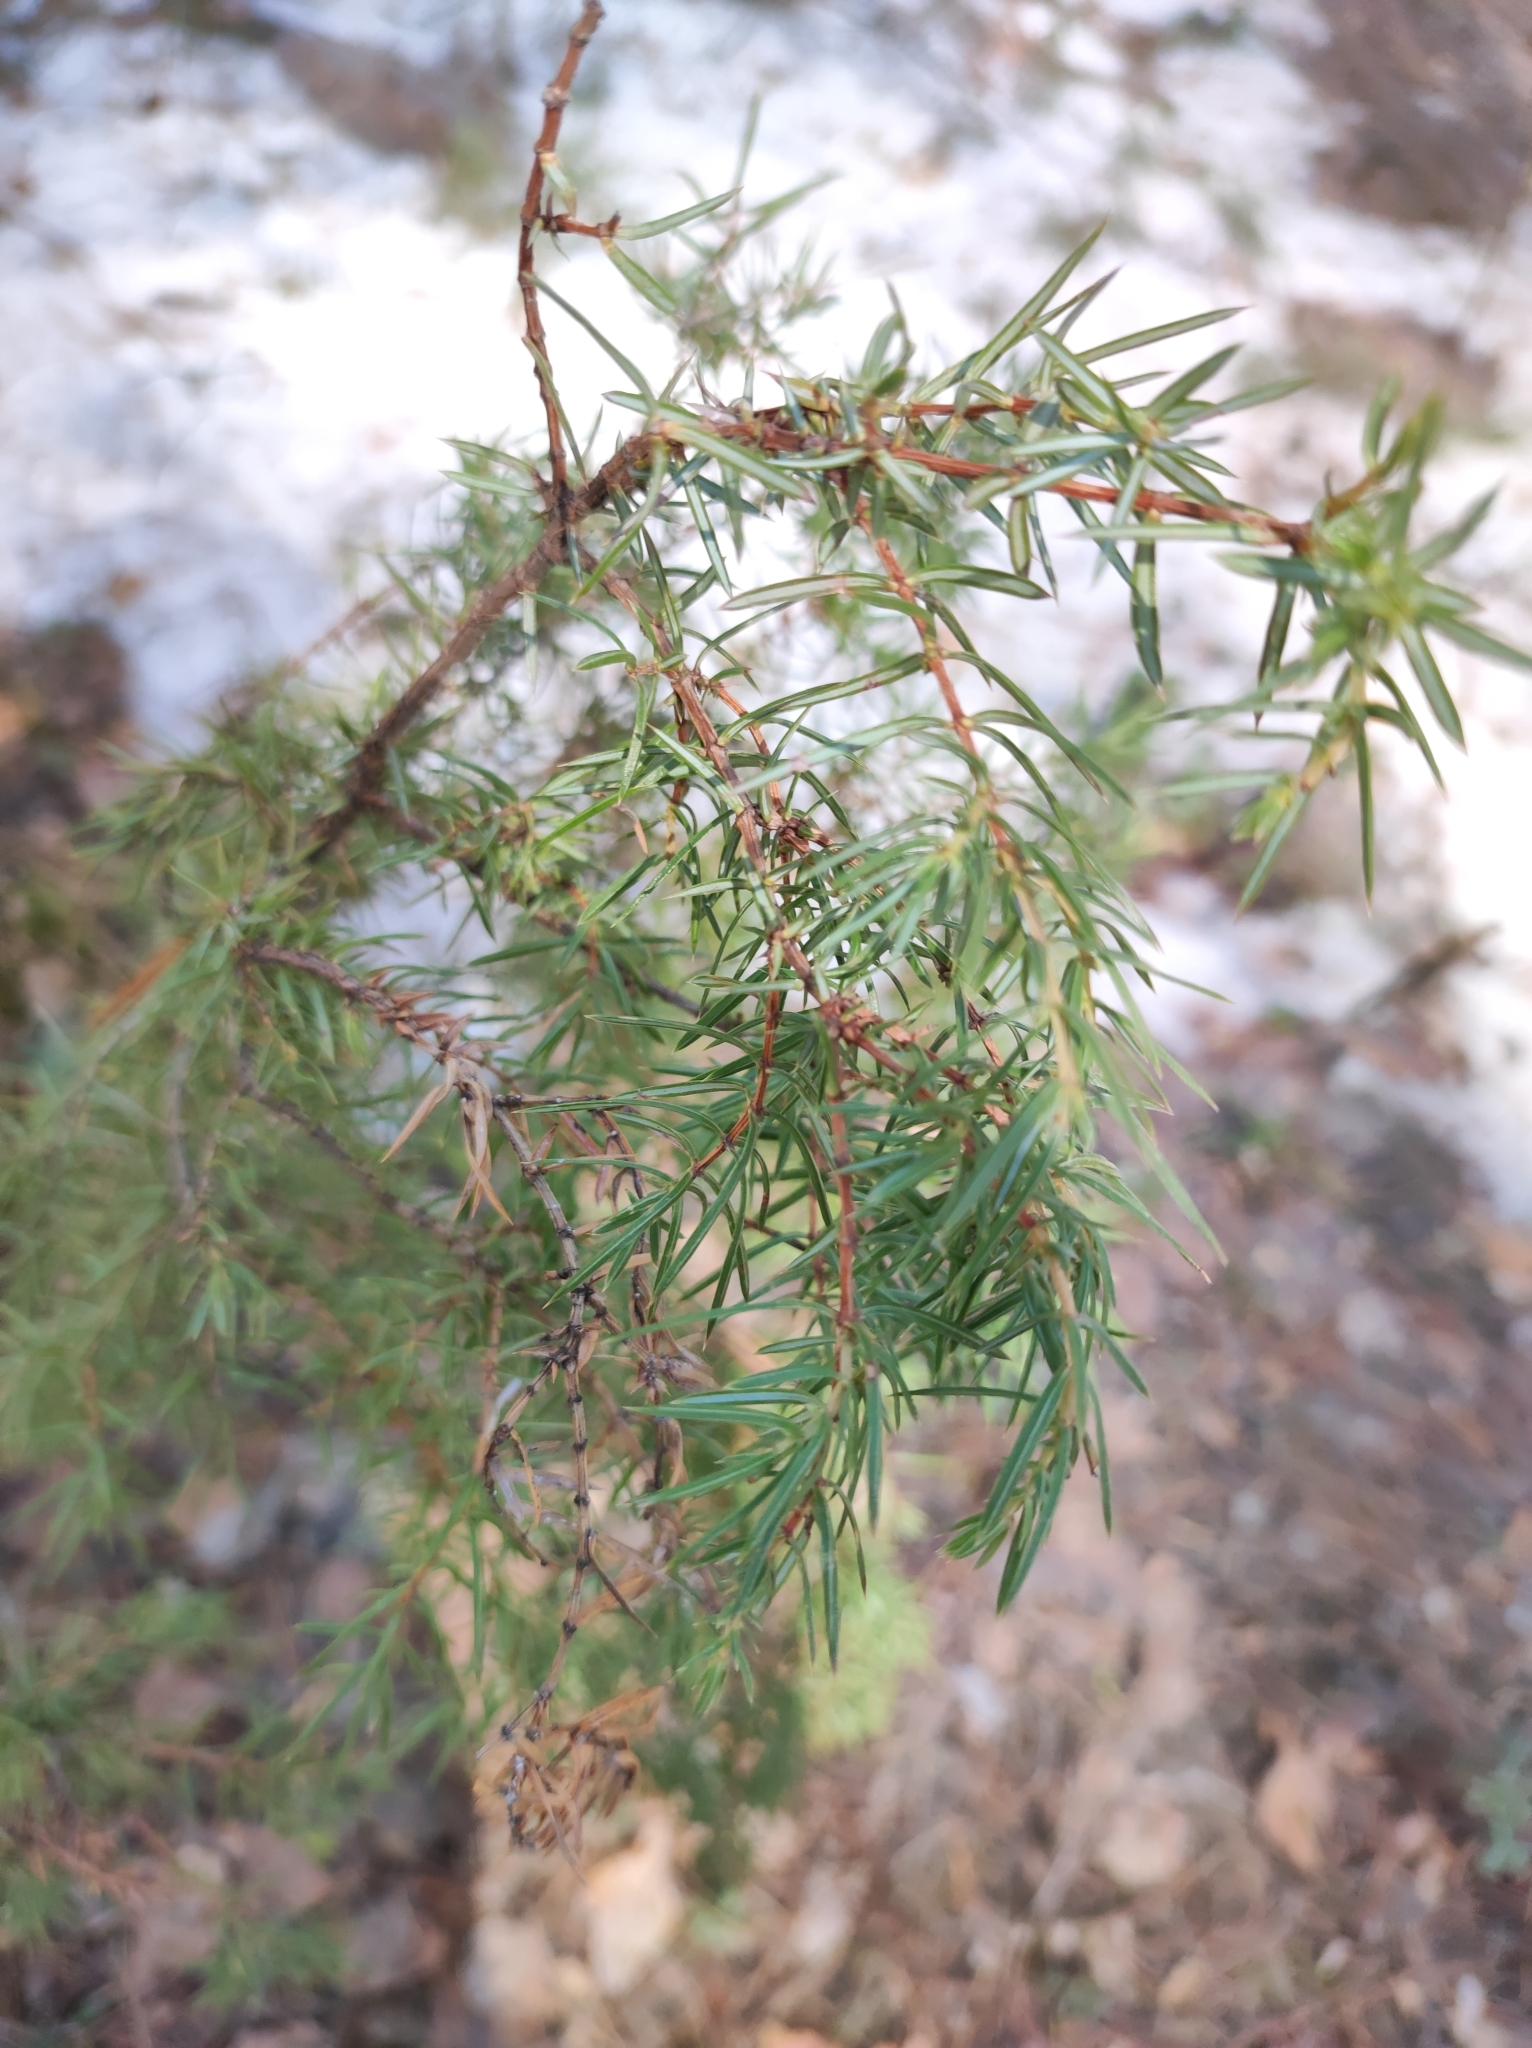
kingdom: Plantae
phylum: Tracheophyta
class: Pinopsida
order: Pinales
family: Cupressaceae
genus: Juniperus
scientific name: Juniperus communis
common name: Common juniper
